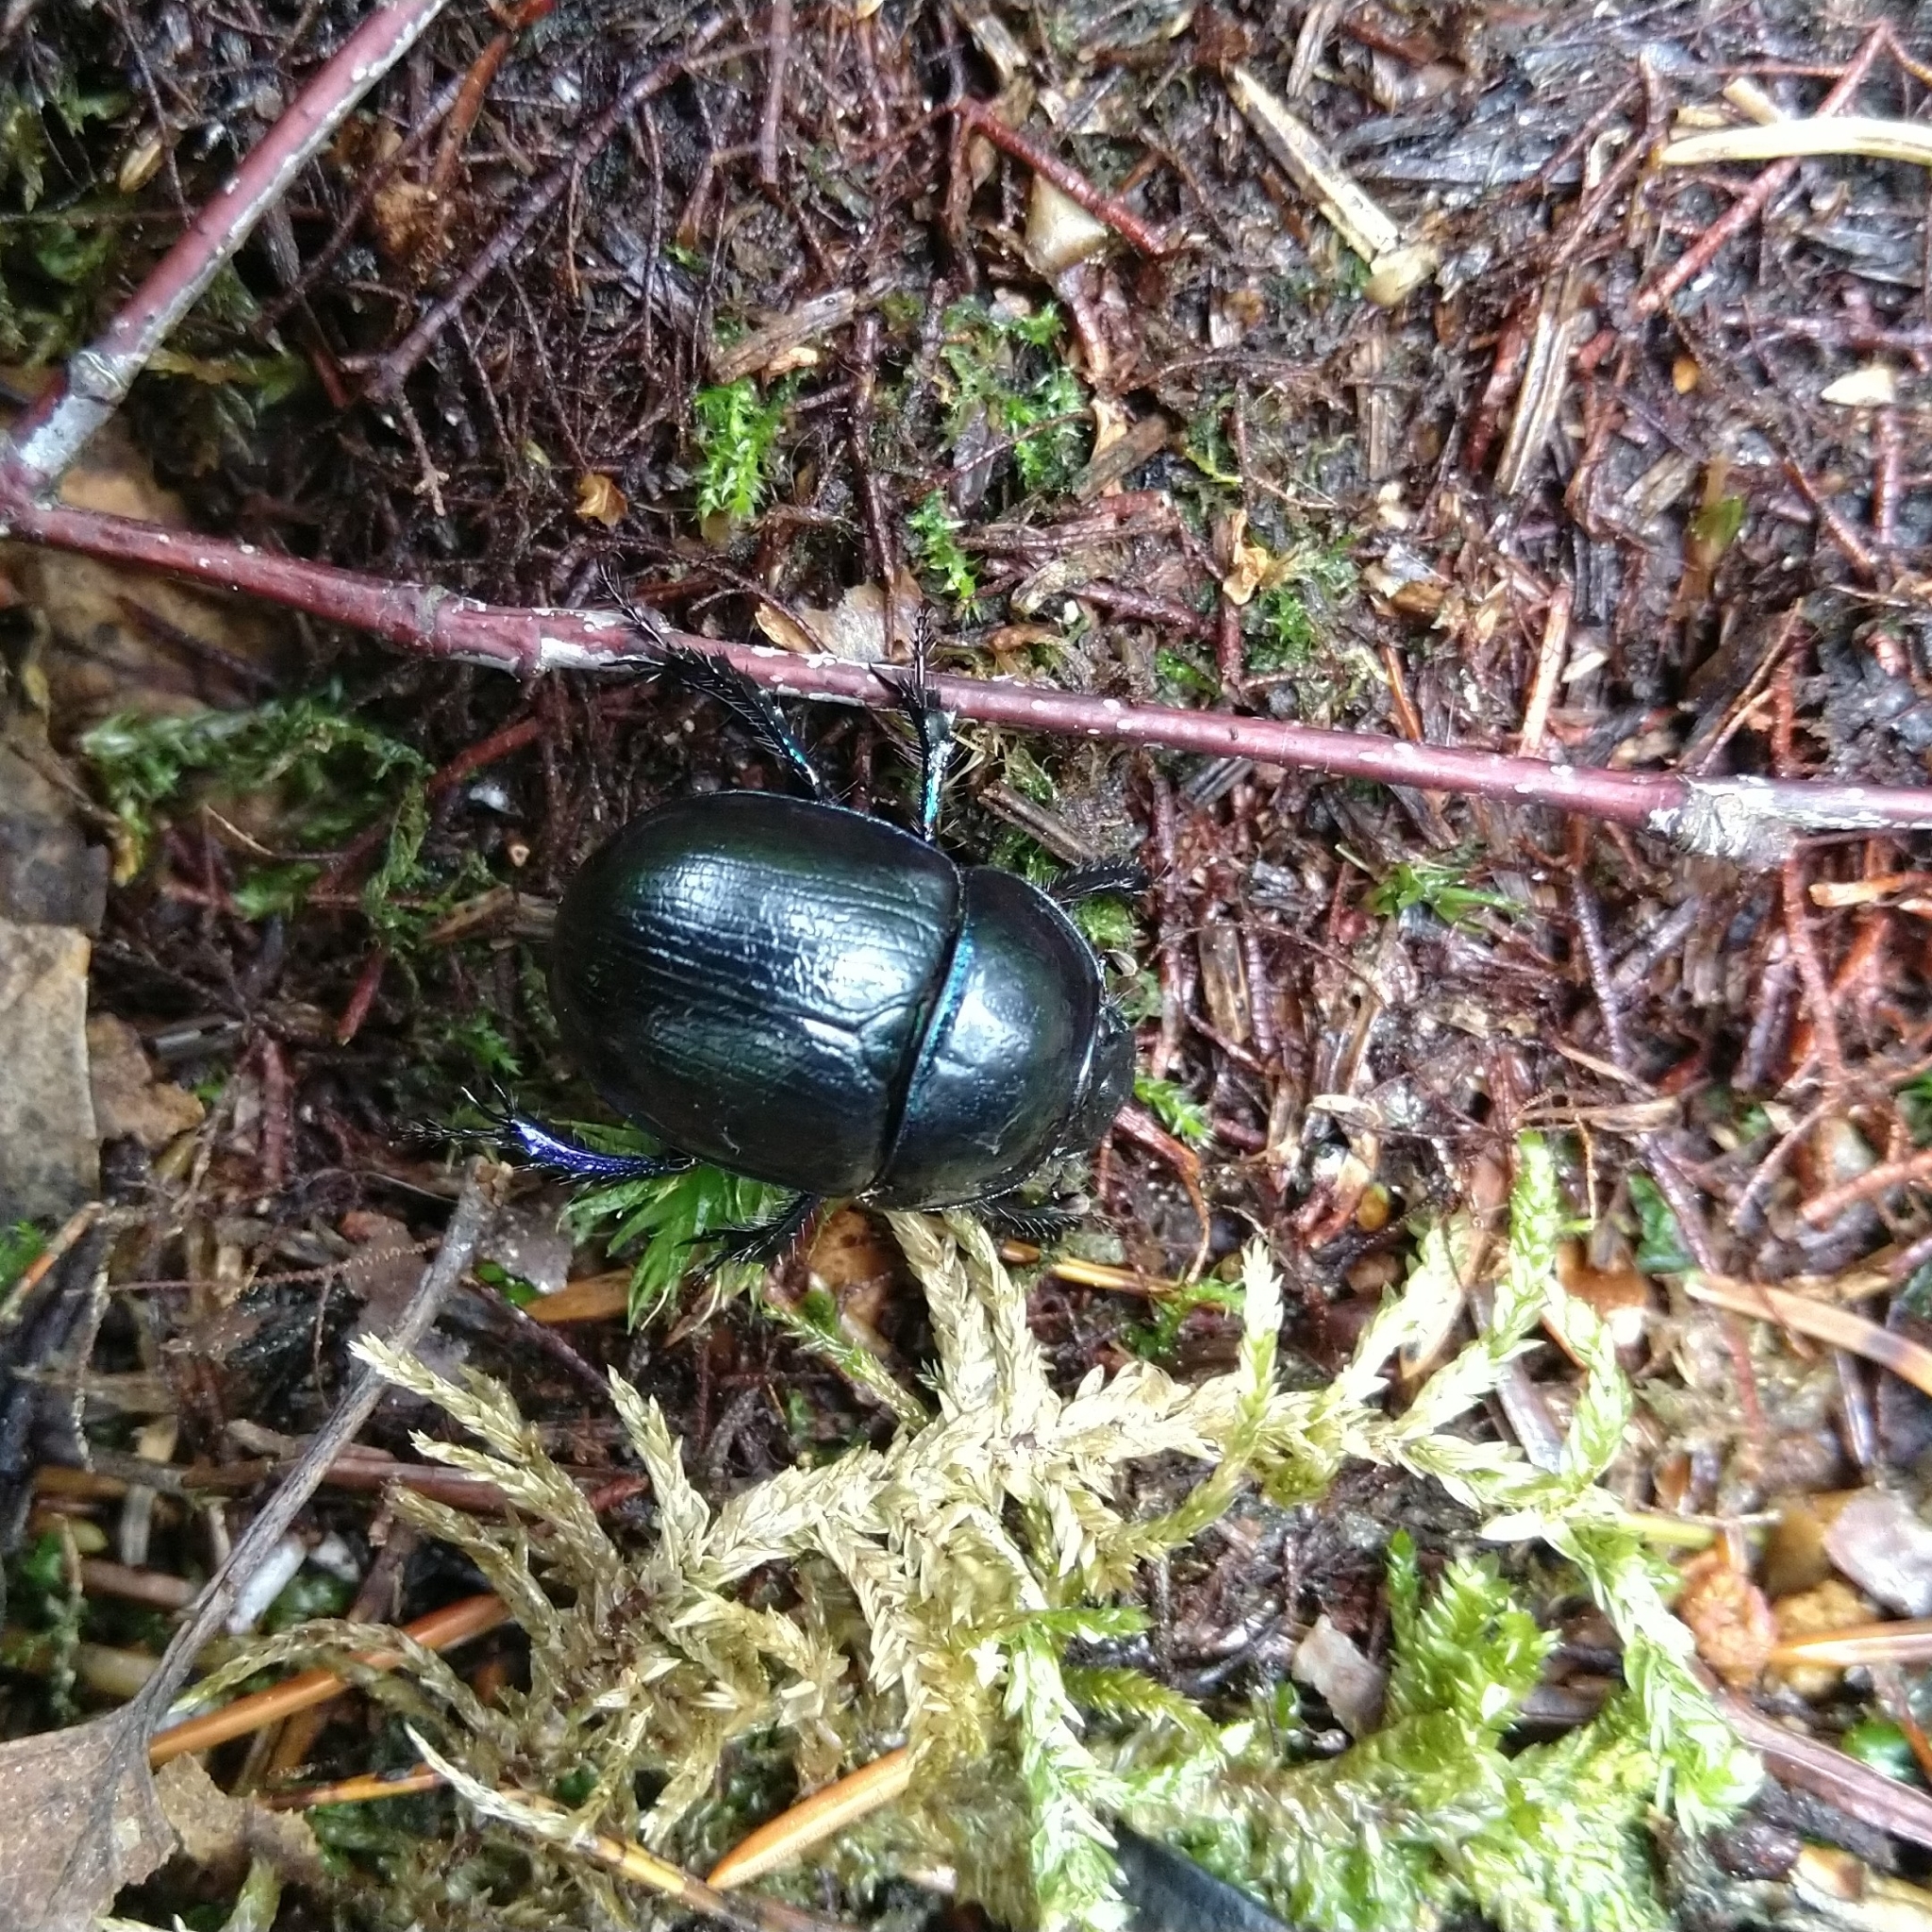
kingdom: Animalia
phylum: Arthropoda
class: Insecta
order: Coleoptera
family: Geotrupidae
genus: Anoplotrupes
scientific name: Anoplotrupes stercorosus
